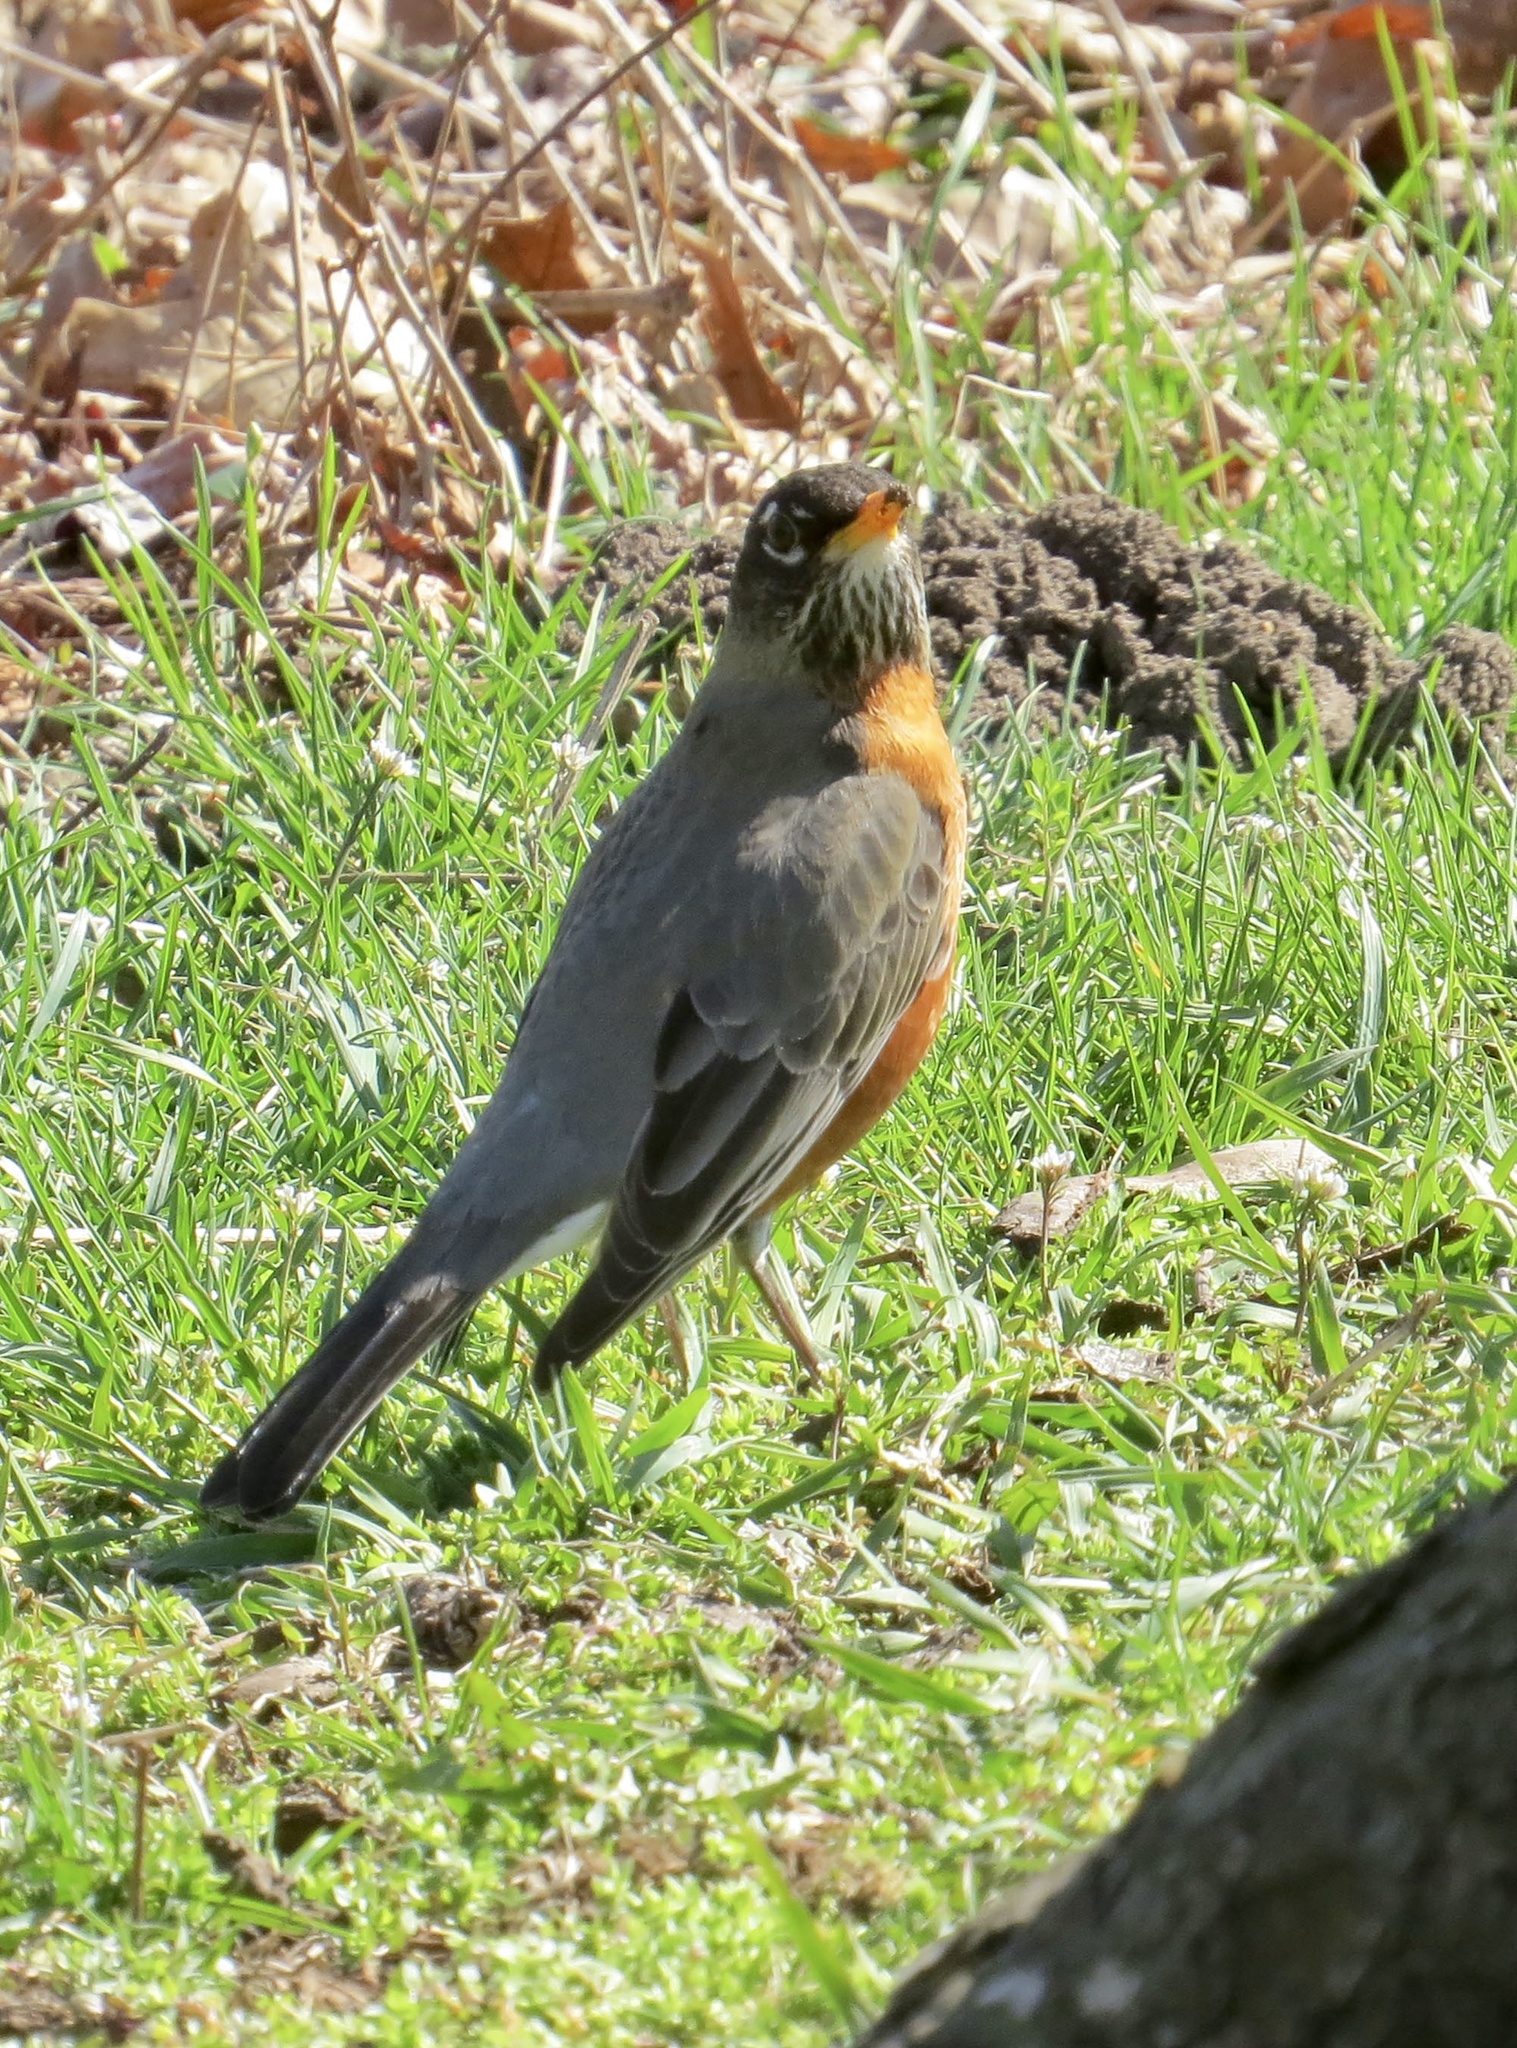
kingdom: Animalia
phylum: Chordata
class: Aves
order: Passeriformes
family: Turdidae
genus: Turdus
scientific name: Turdus migratorius
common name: American robin
